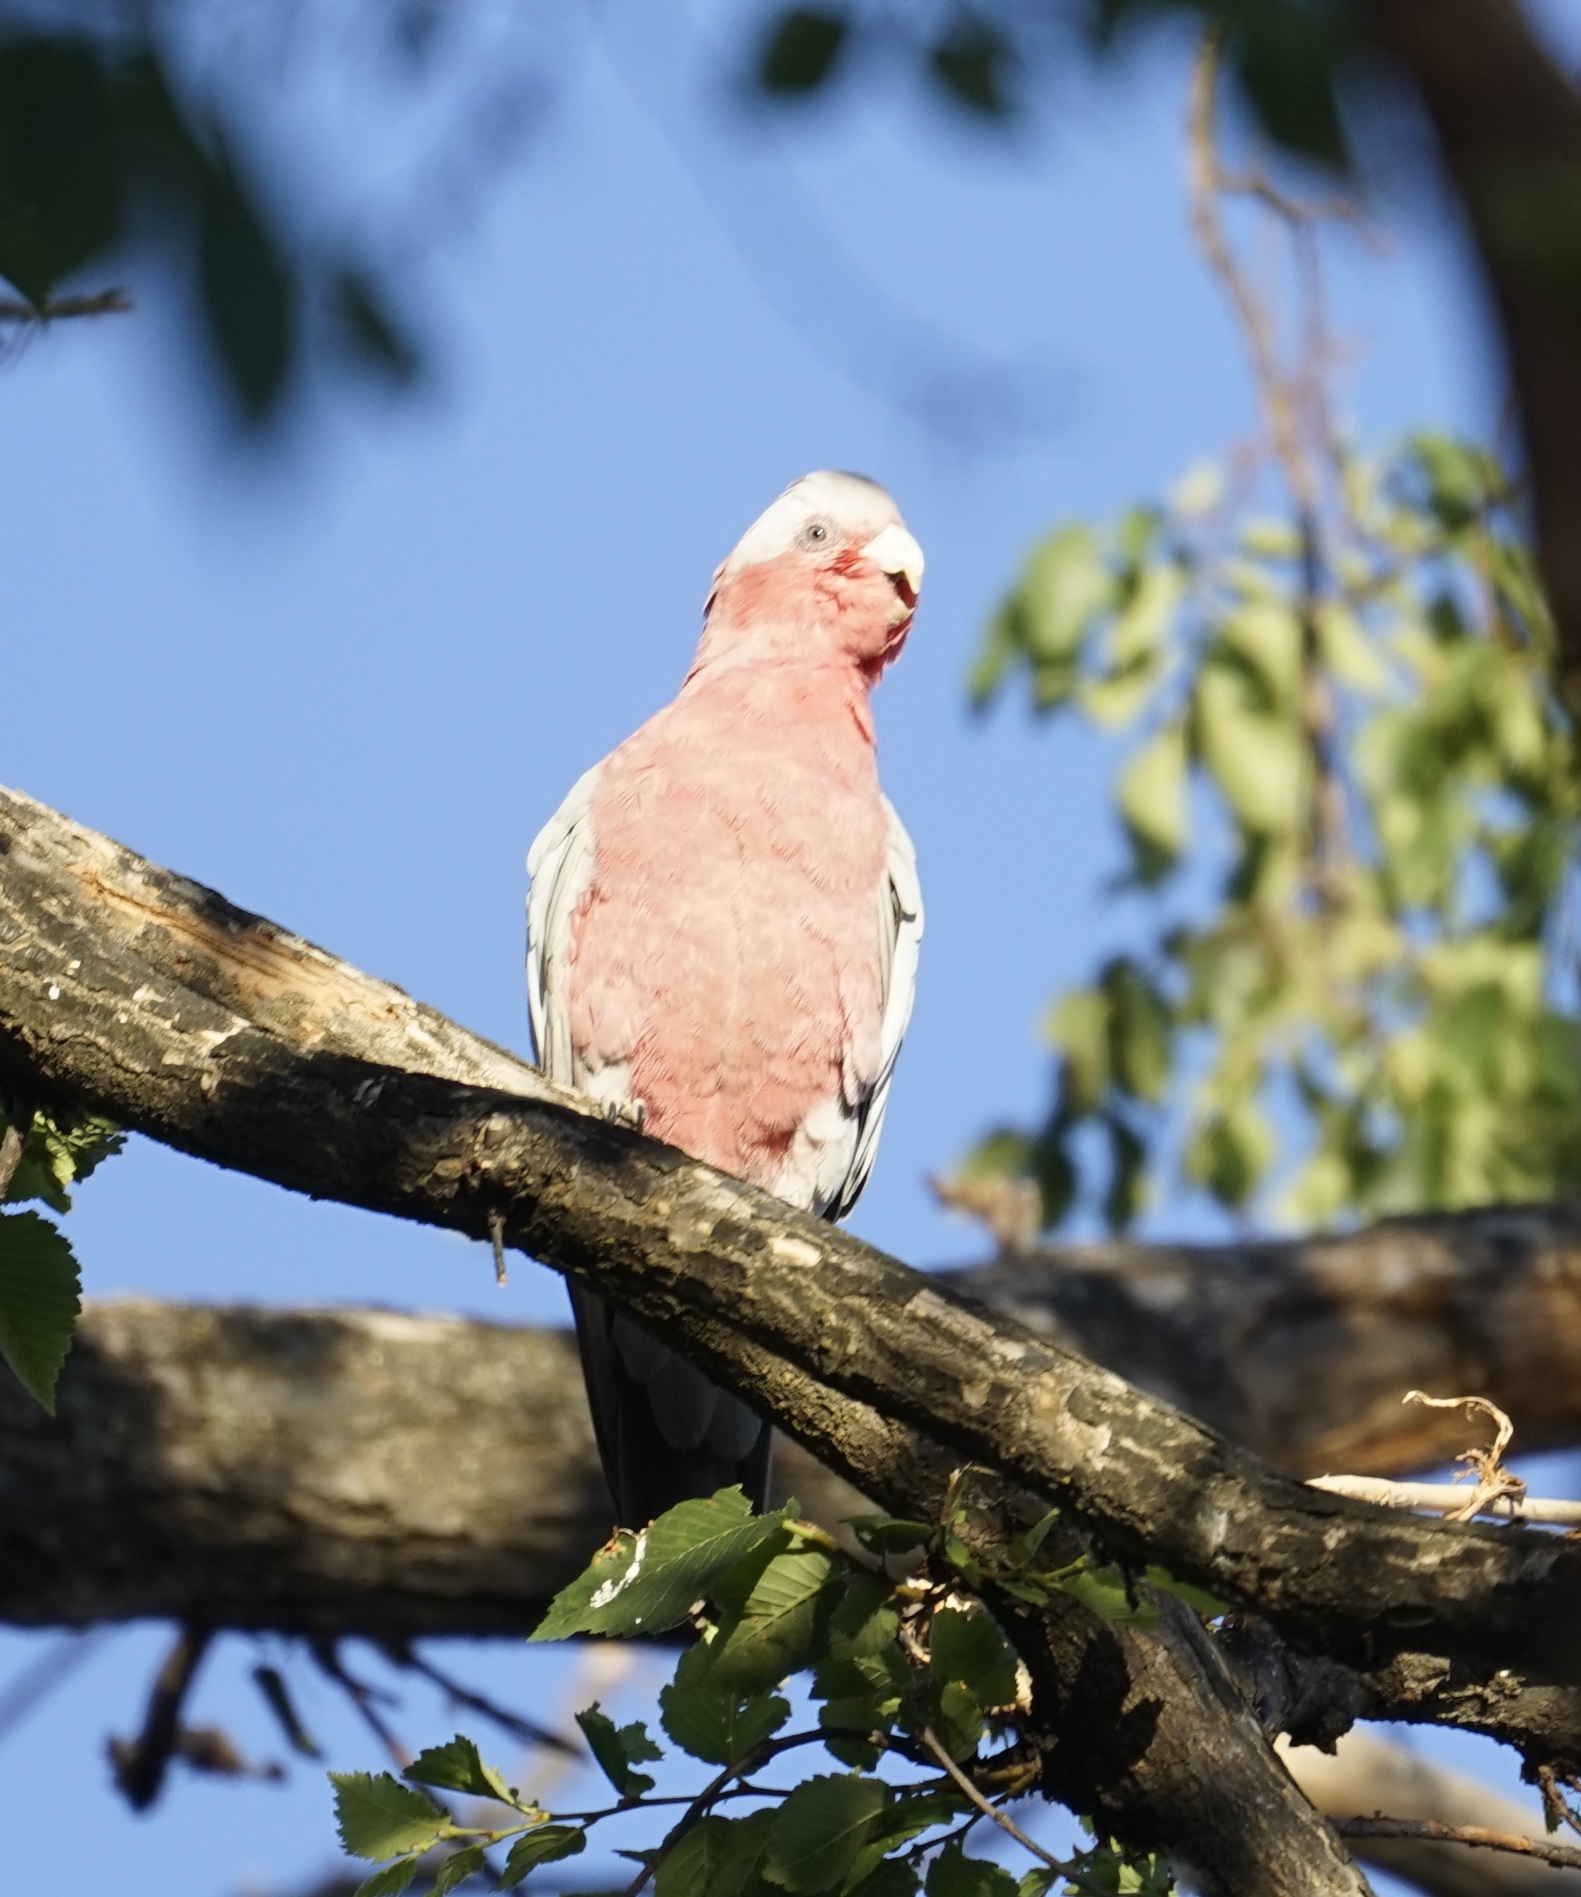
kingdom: Animalia
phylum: Chordata
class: Aves
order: Psittaciformes
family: Psittacidae
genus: Eolophus
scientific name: Eolophus roseicapilla
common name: Galah
